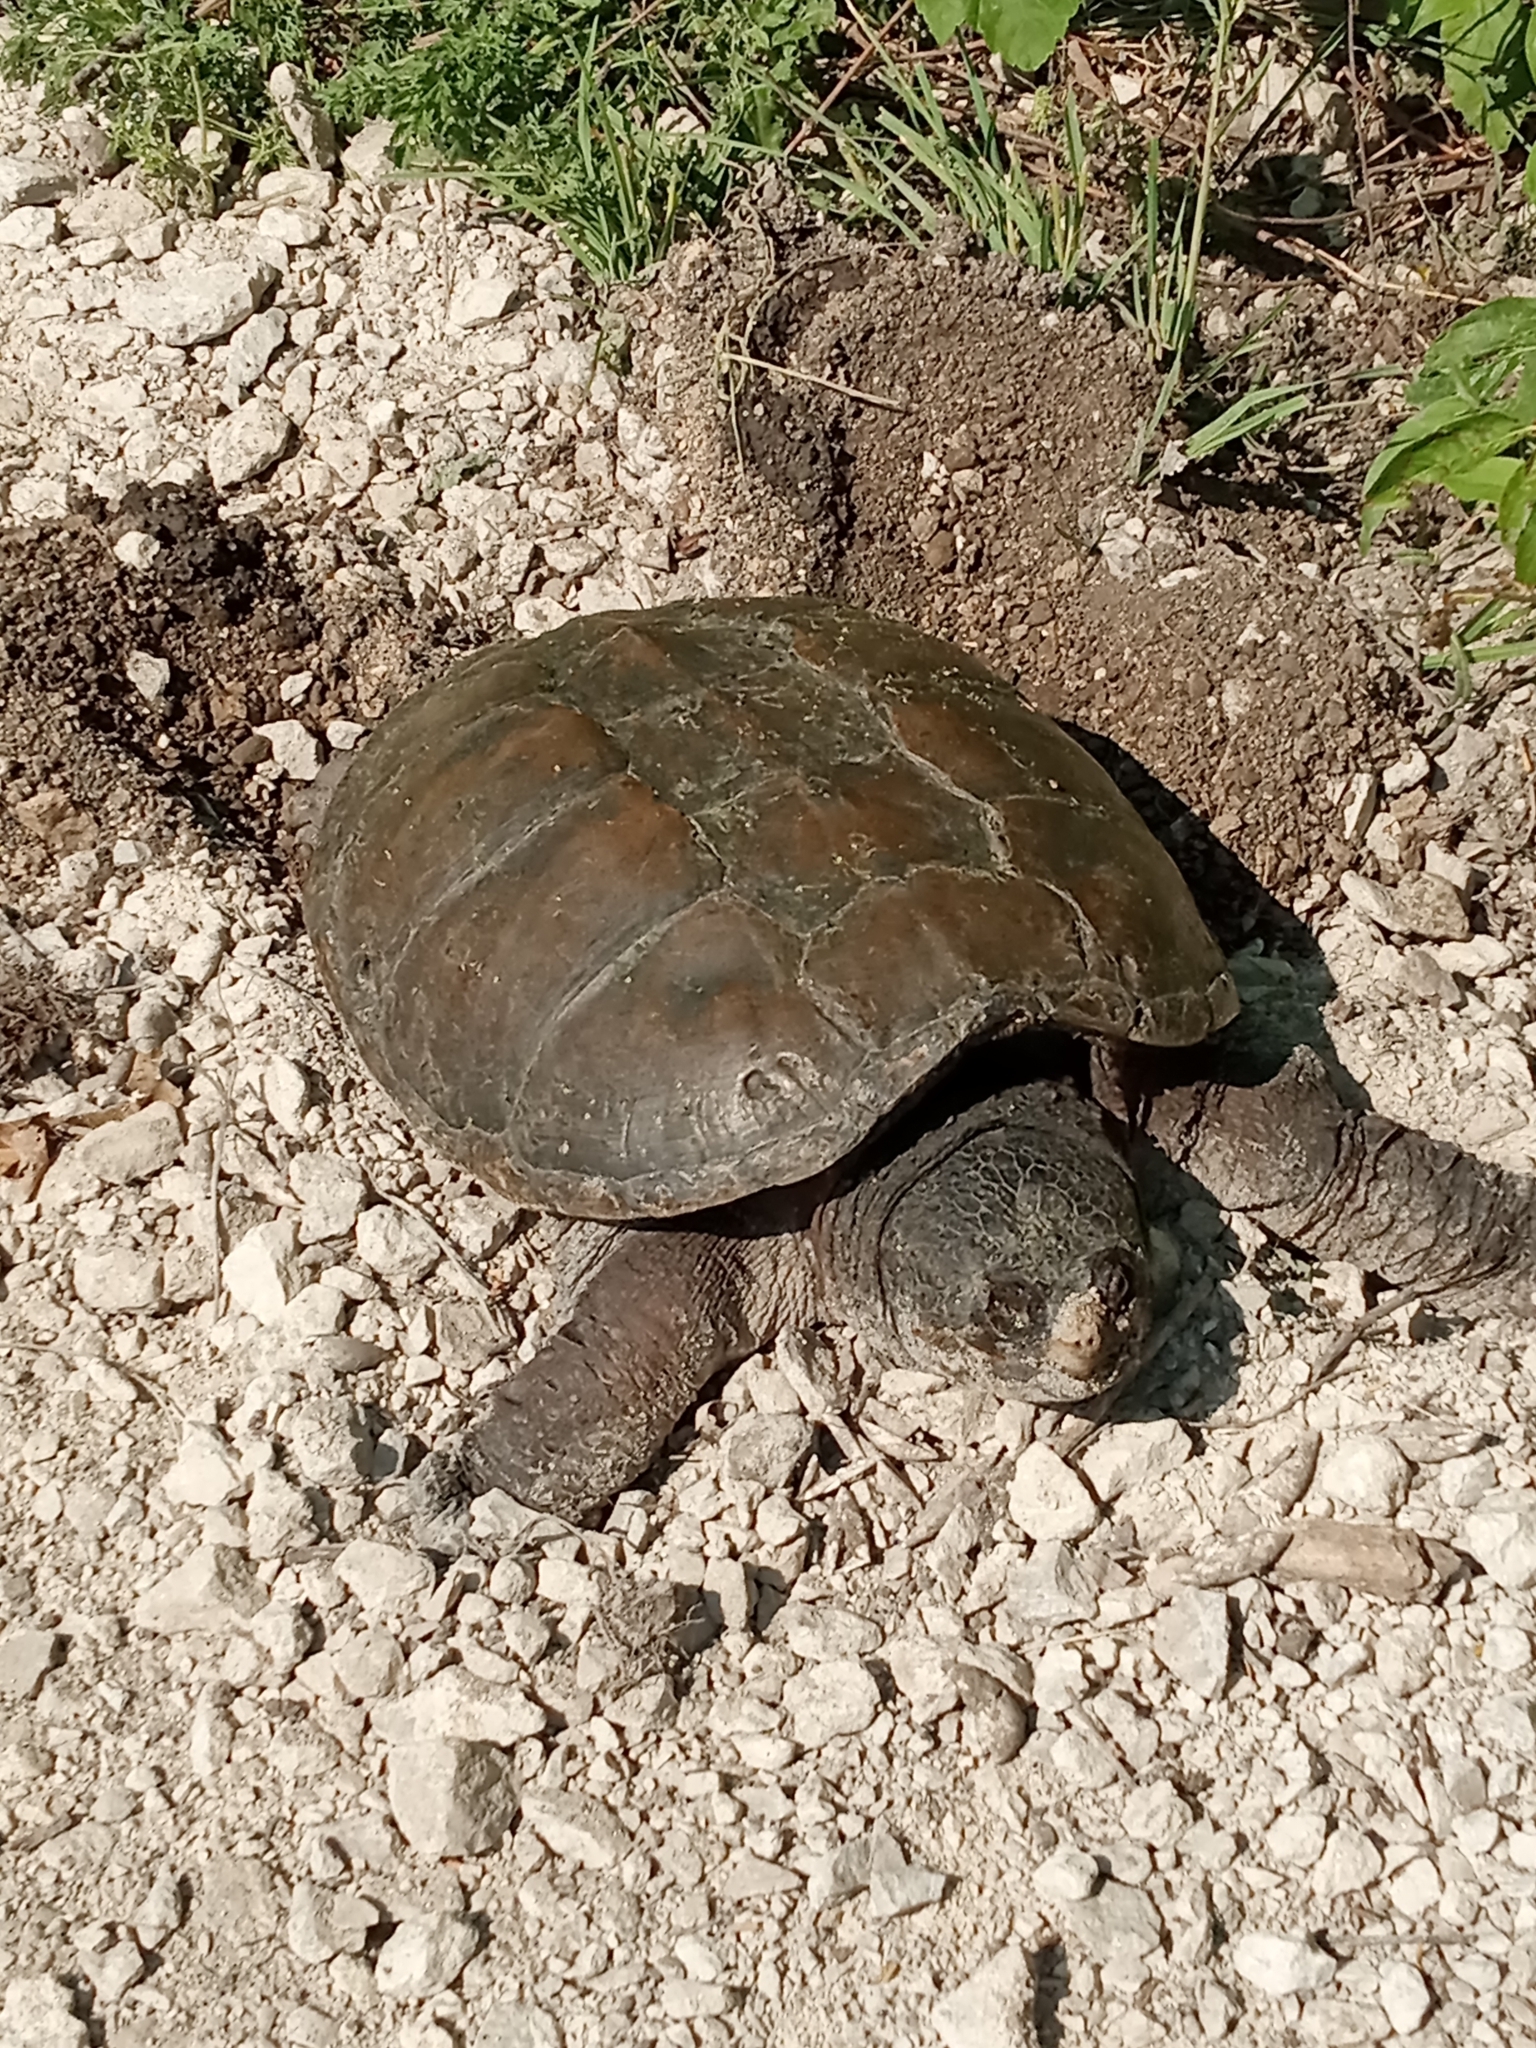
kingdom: Animalia
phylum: Chordata
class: Testudines
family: Chelydridae
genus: Chelydra
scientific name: Chelydra serpentina
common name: Common snapping turtle
